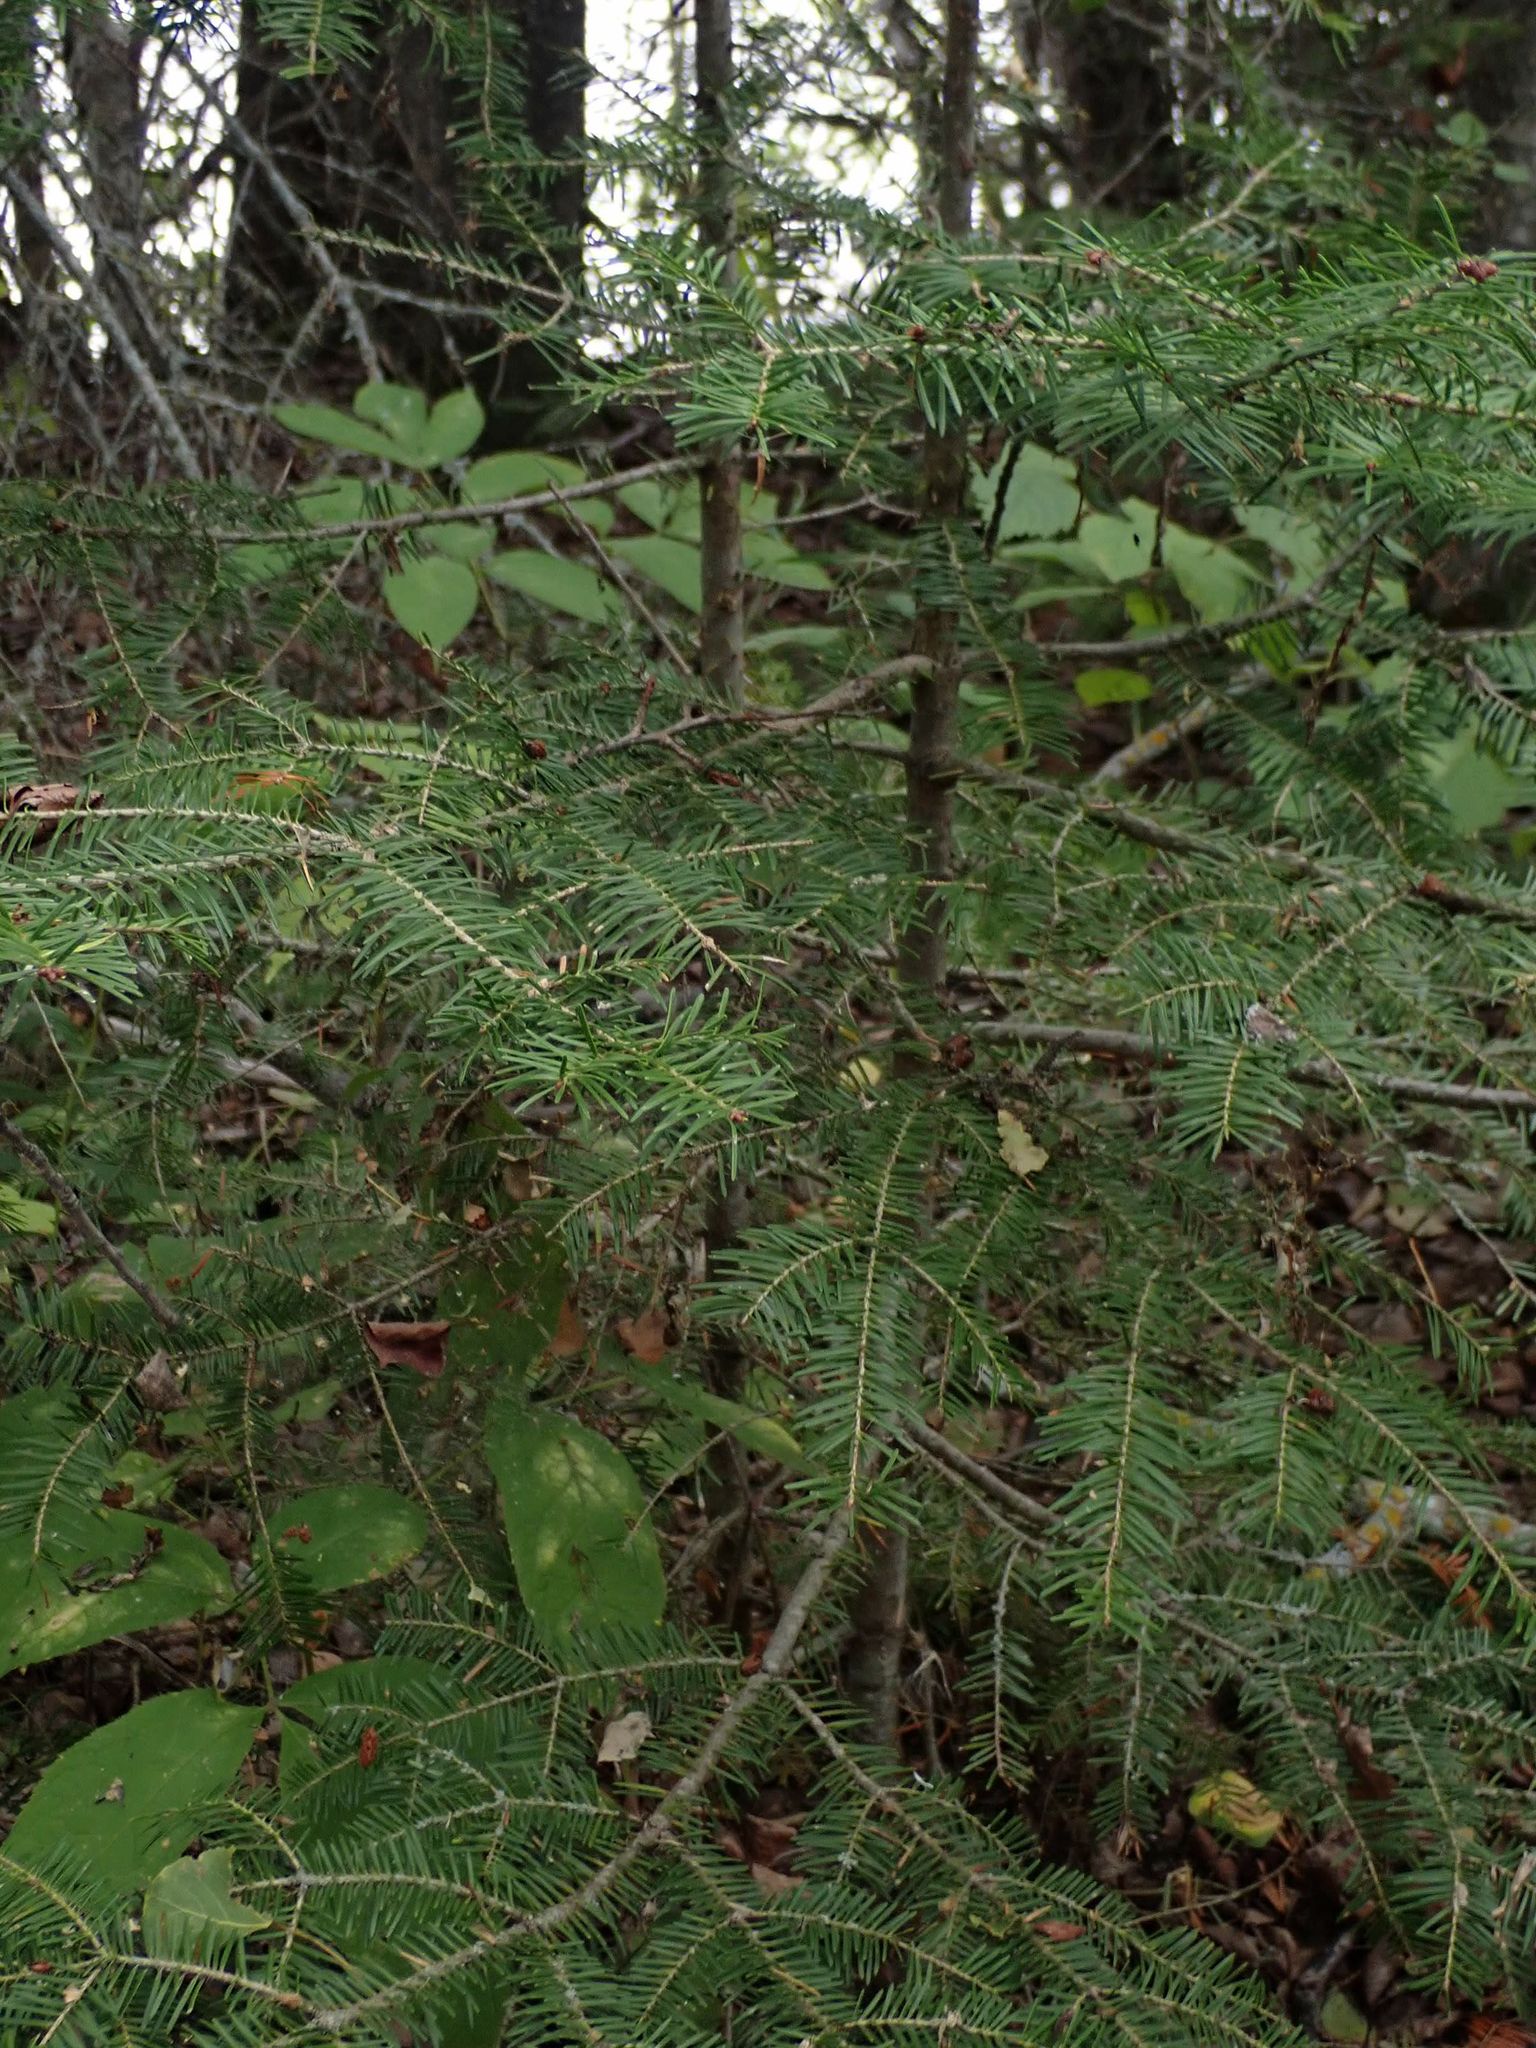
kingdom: Plantae
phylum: Tracheophyta
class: Pinopsida
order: Pinales
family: Pinaceae
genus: Abies
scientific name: Abies balsamea
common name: Balsam fir
